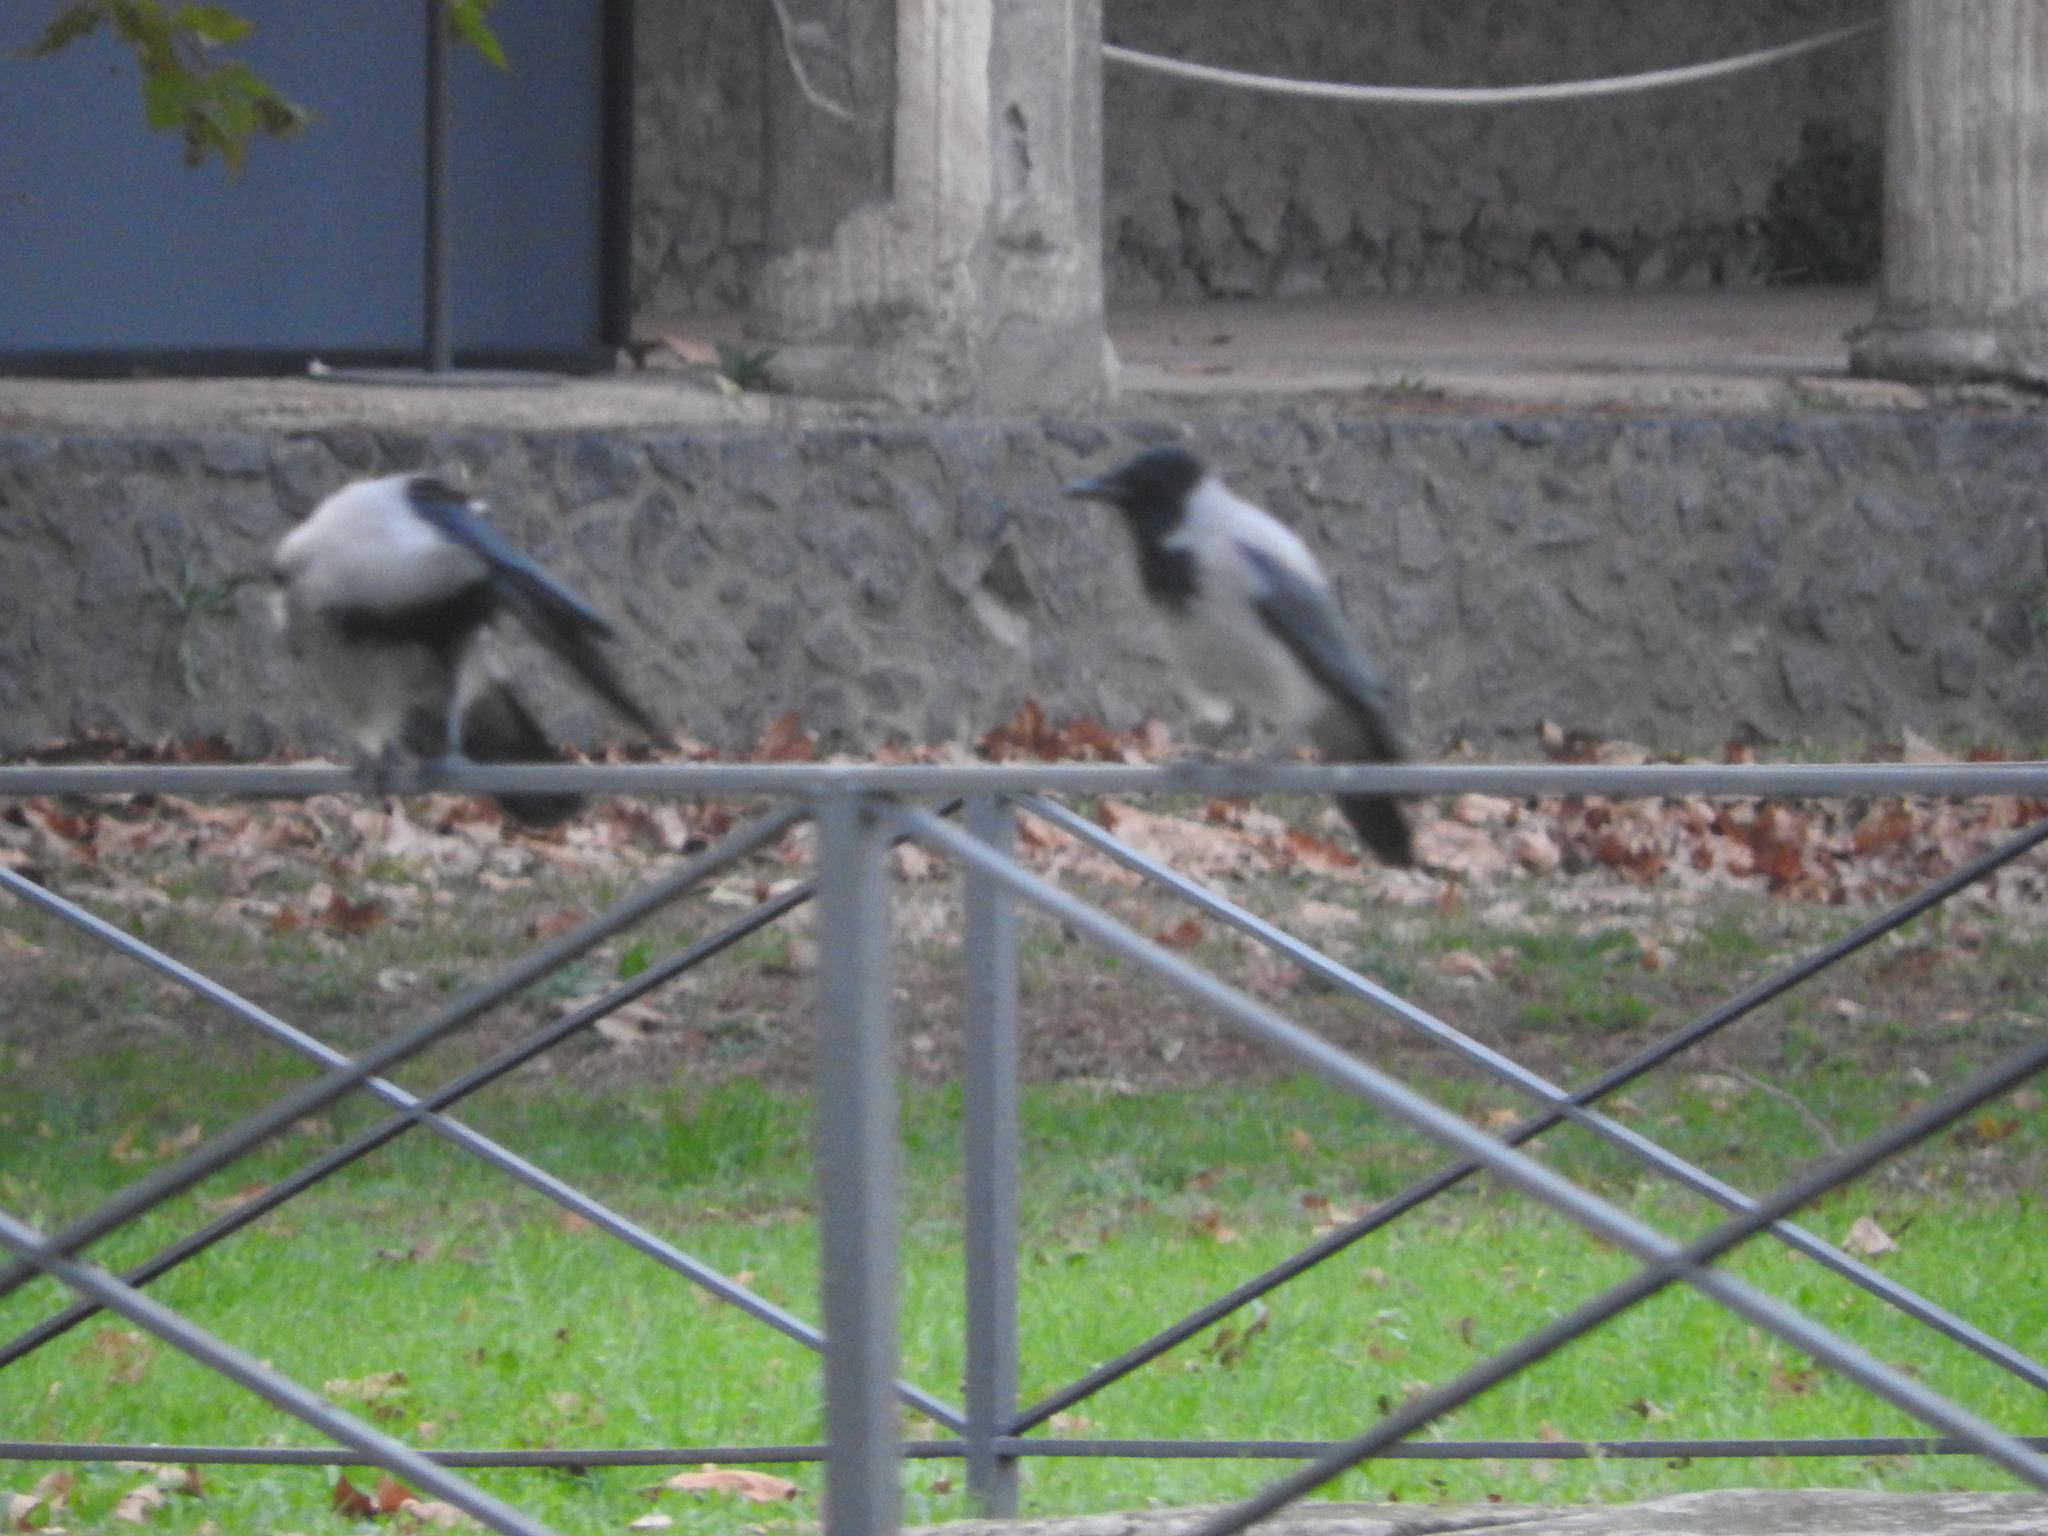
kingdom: Animalia
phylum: Chordata
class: Aves
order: Passeriformes
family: Corvidae
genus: Corvus
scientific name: Corvus cornix
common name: Hooded crow
